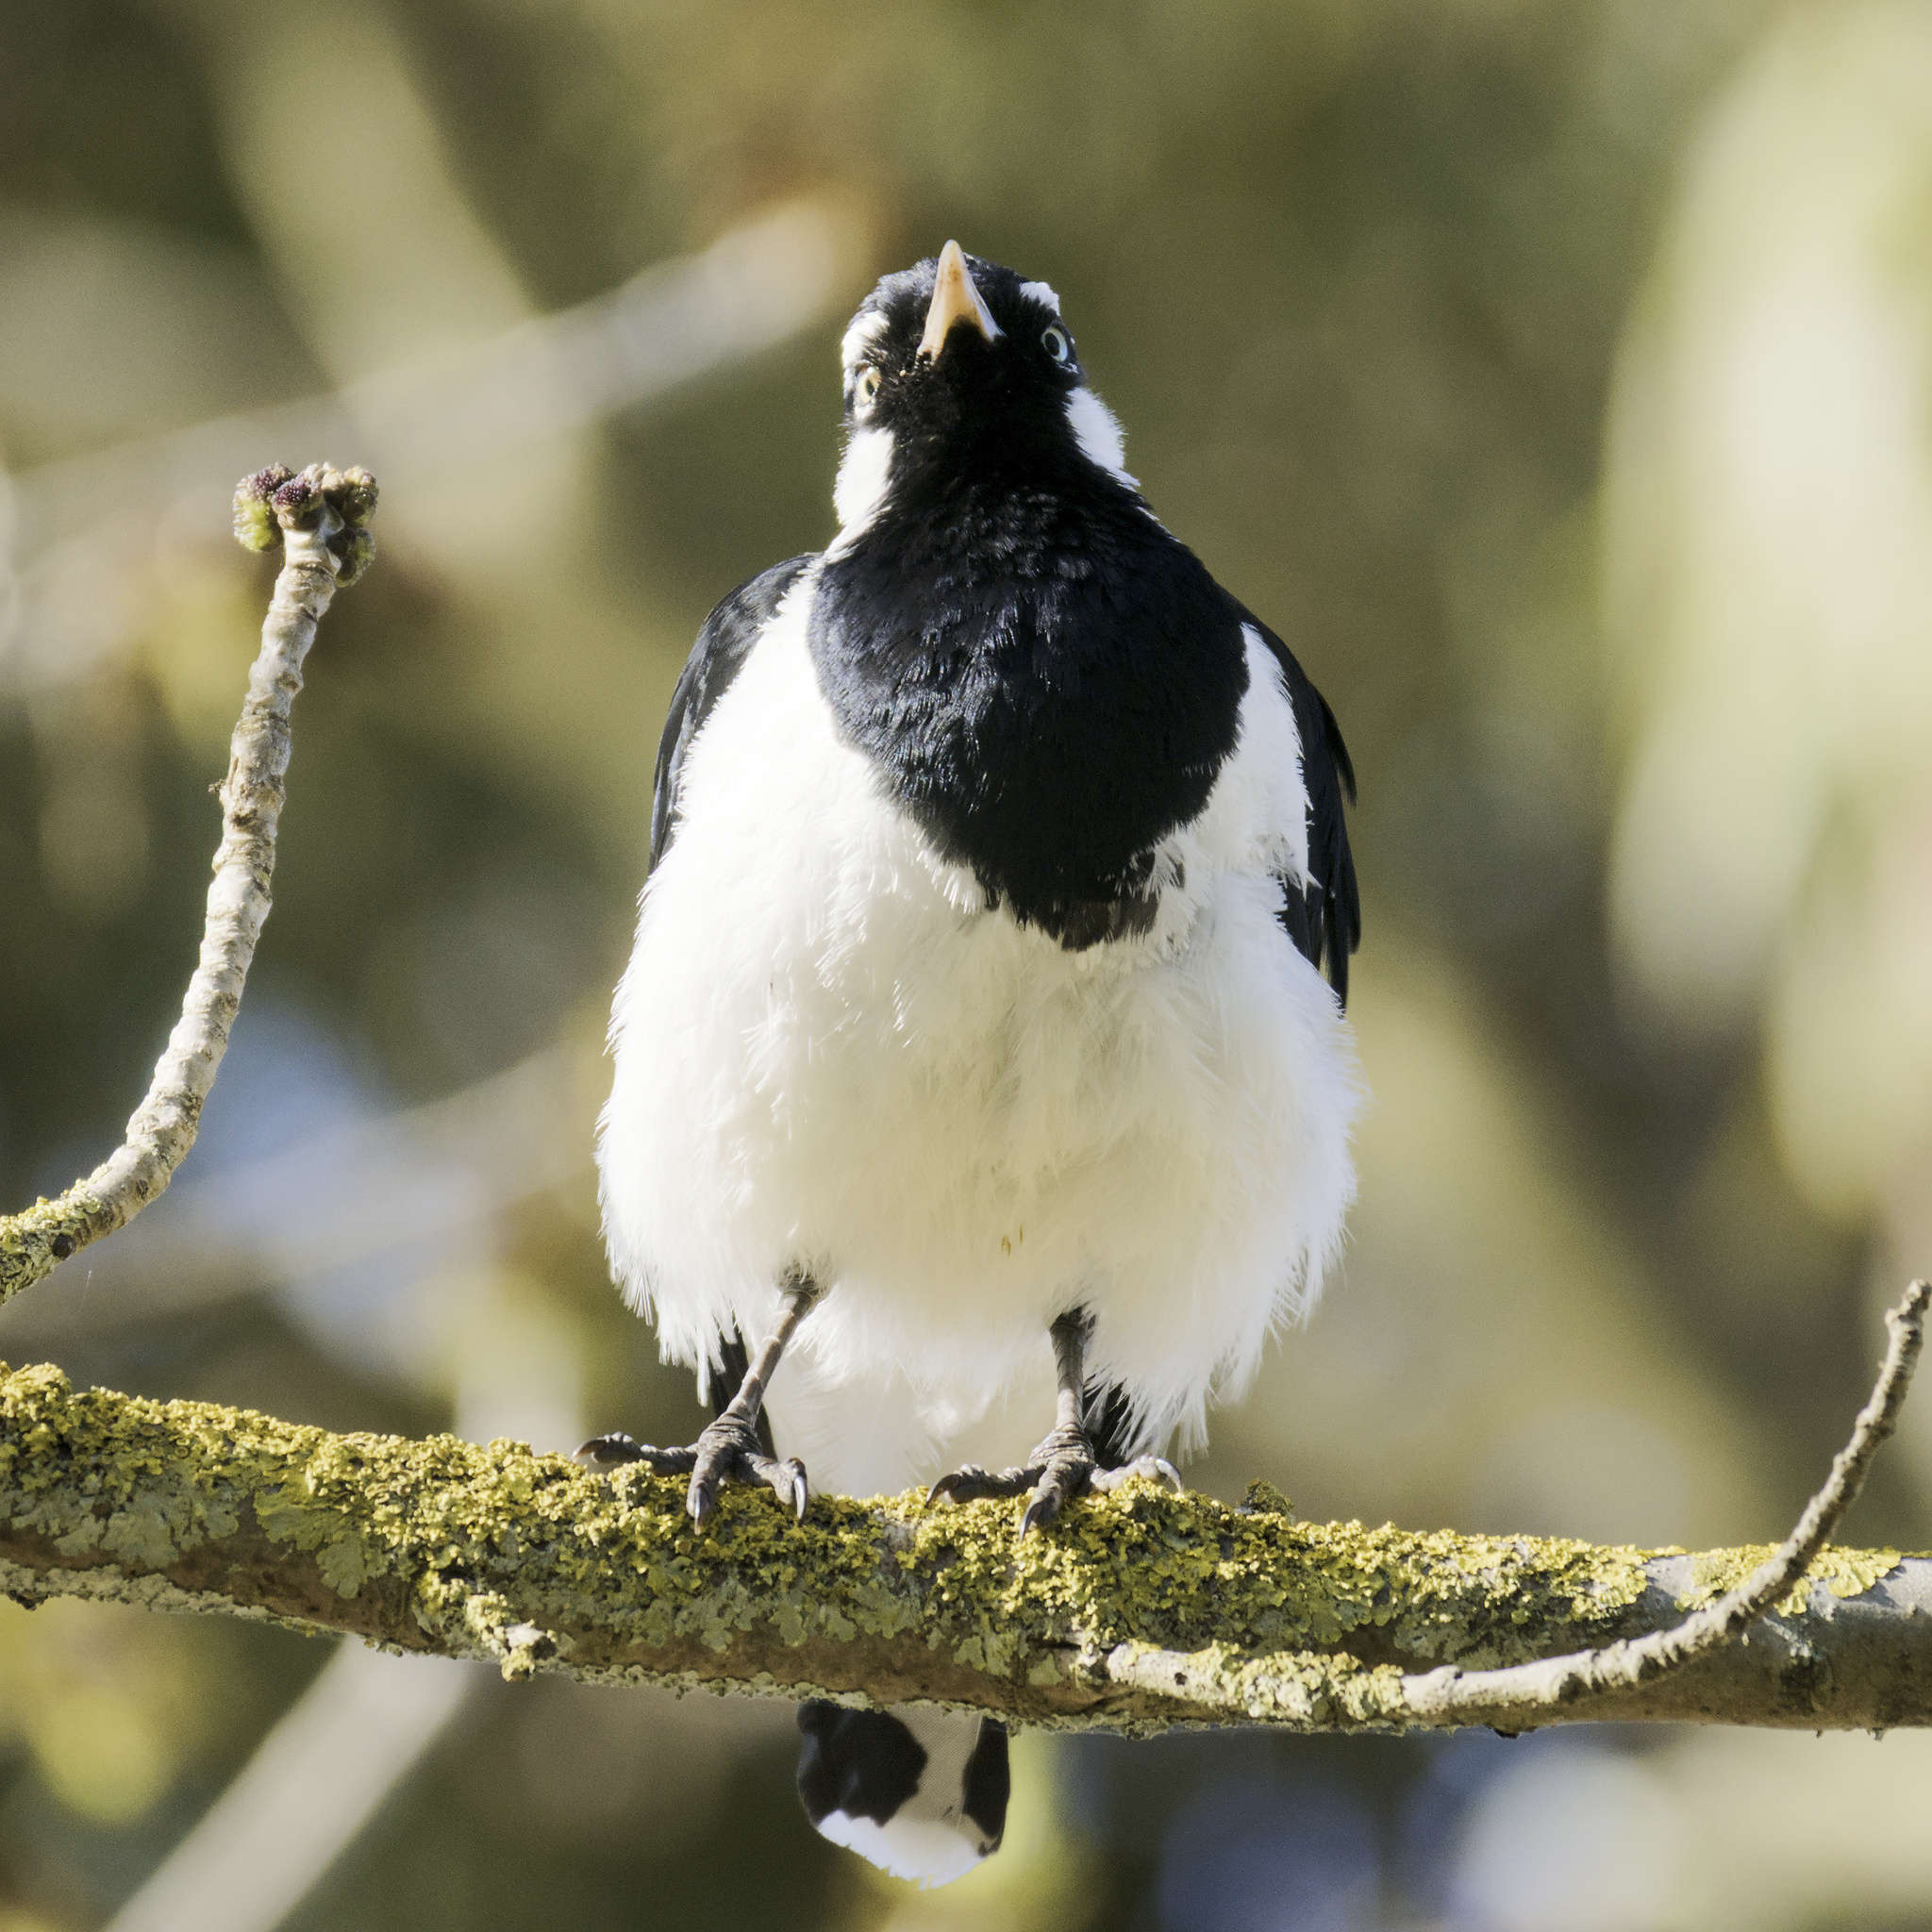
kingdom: Animalia
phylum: Chordata
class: Aves
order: Passeriformes
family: Monarchidae
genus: Grallina
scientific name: Grallina cyanoleuca
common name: Magpie-lark
